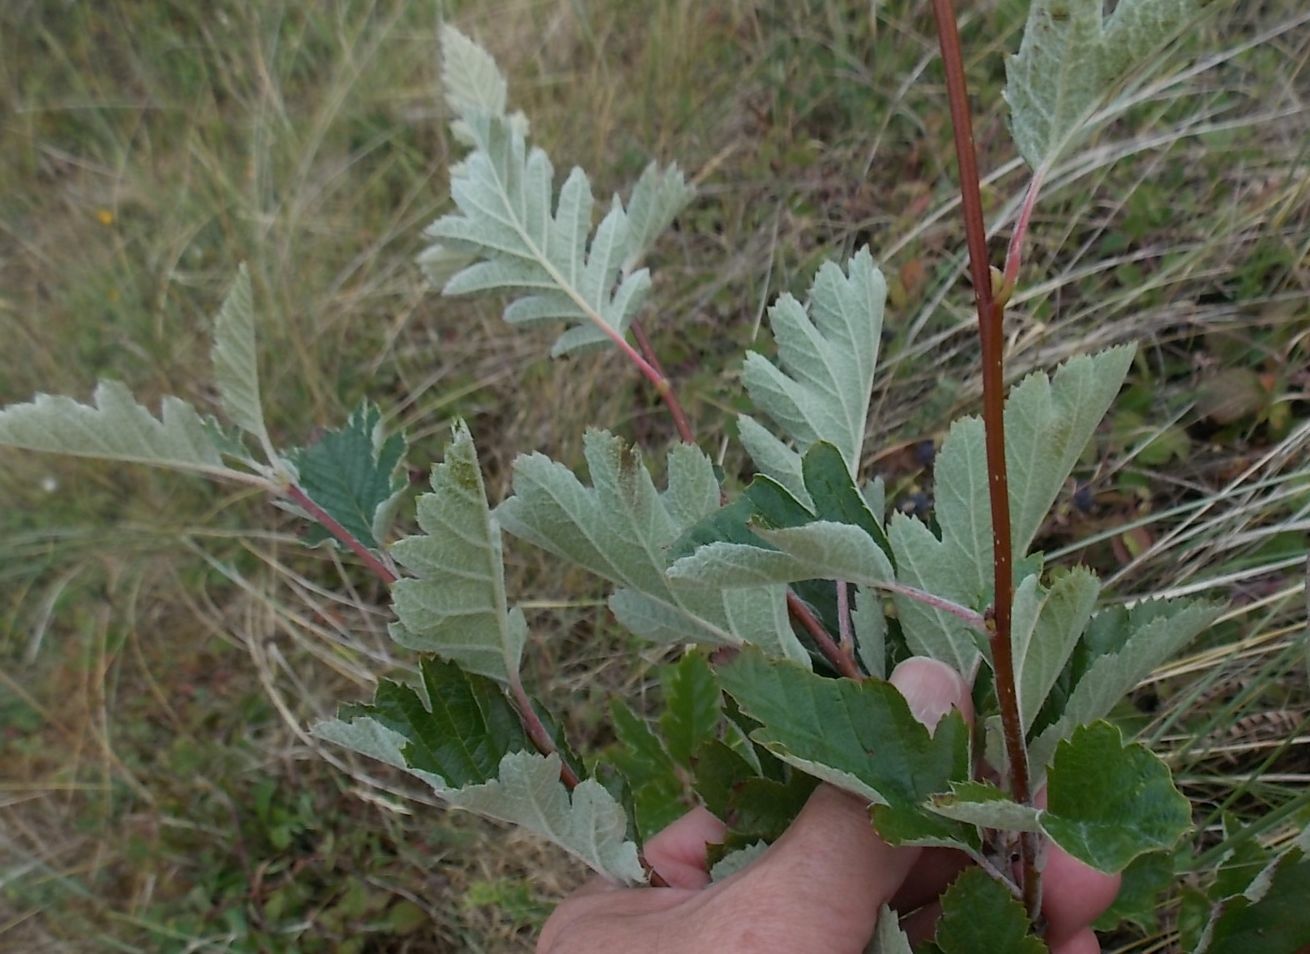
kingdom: Plantae
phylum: Tracheophyta
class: Magnoliopsida
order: Rosales
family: Rosaceae
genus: Scandosorbus
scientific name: Scandosorbus intermedia
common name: Swedish whitebeam
